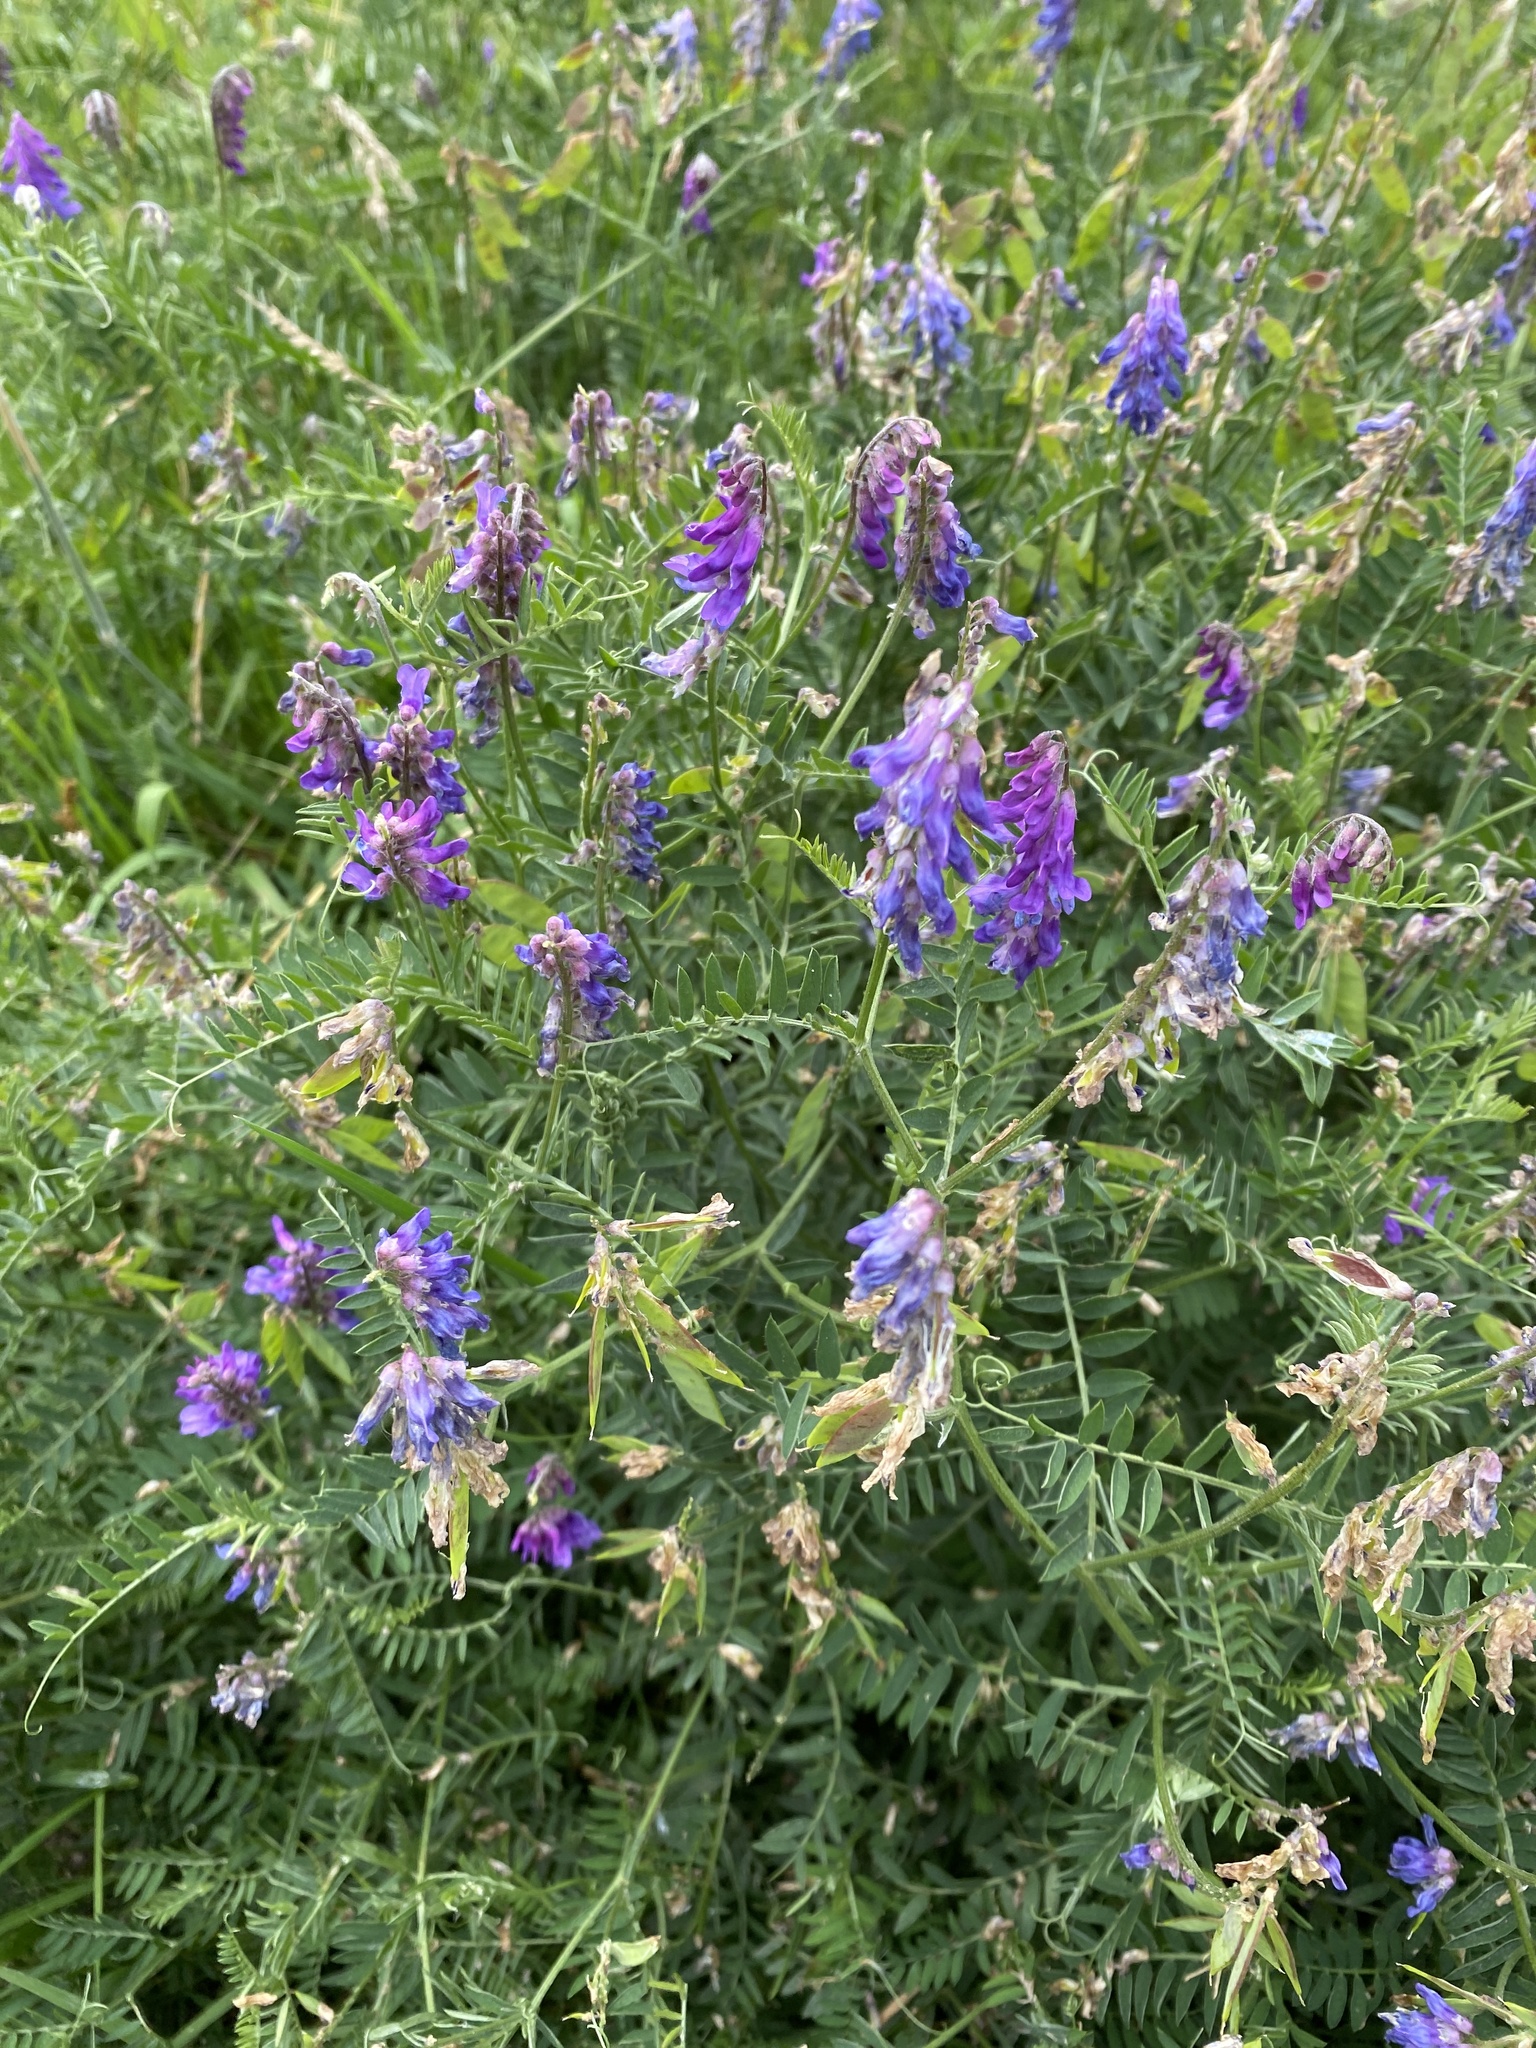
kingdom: Plantae
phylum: Tracheophyta
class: Magnoliopsida
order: Fabales
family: Fabaceae
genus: Vicia
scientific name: Vicia cracca
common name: Bird vetch
